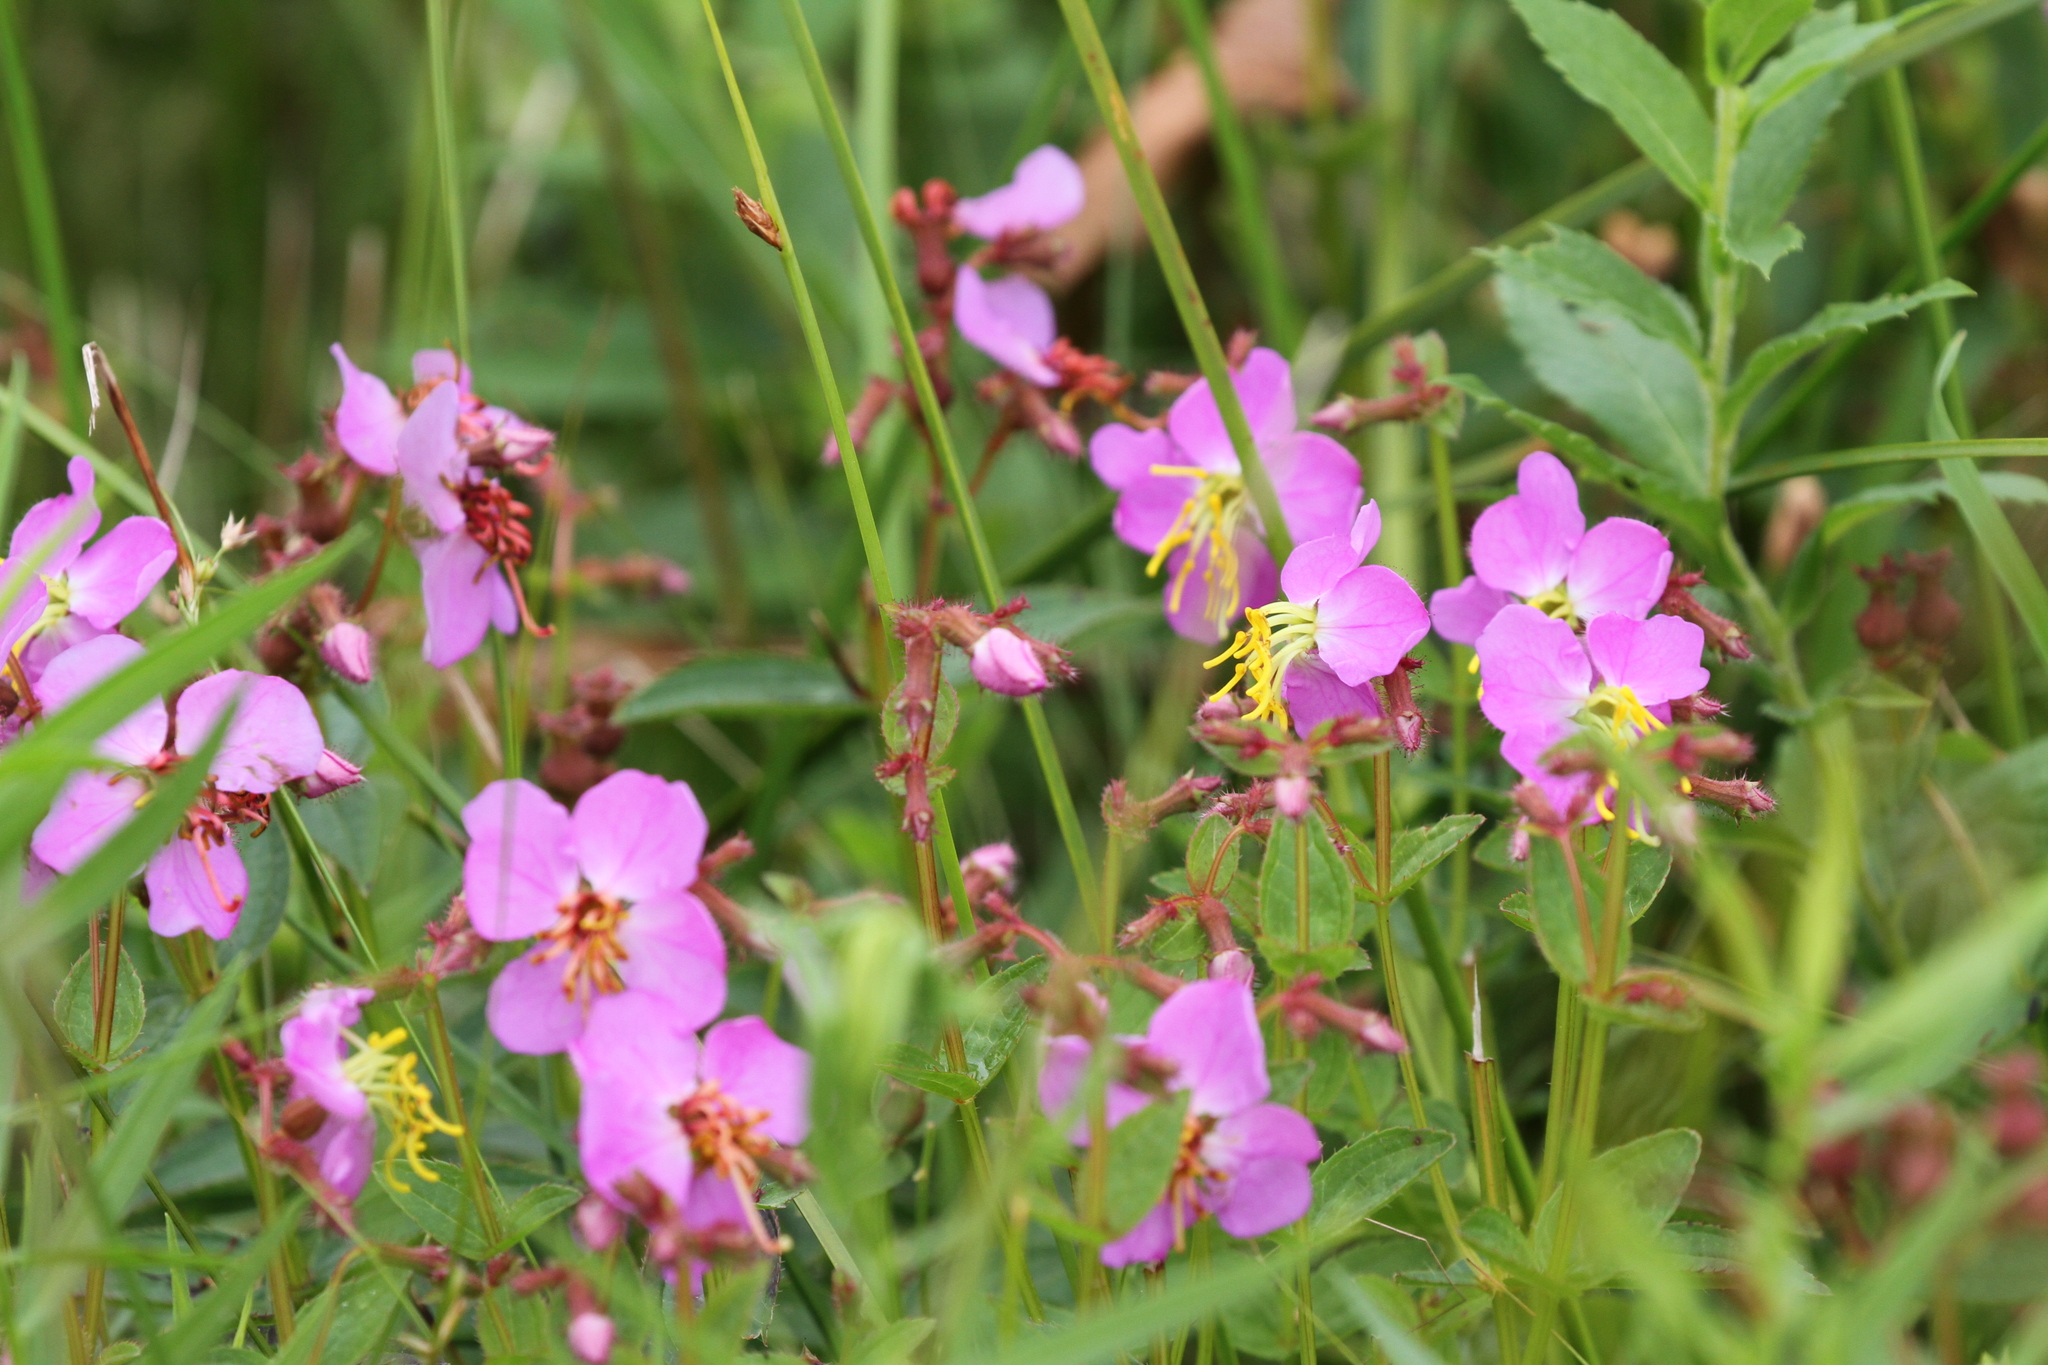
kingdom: Plantae
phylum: Tracheophyta
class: Magnoliopsida
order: Myrtales
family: Melastomataceae
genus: Rhexia
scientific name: Rhexia virginica
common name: Common meadow beauty
